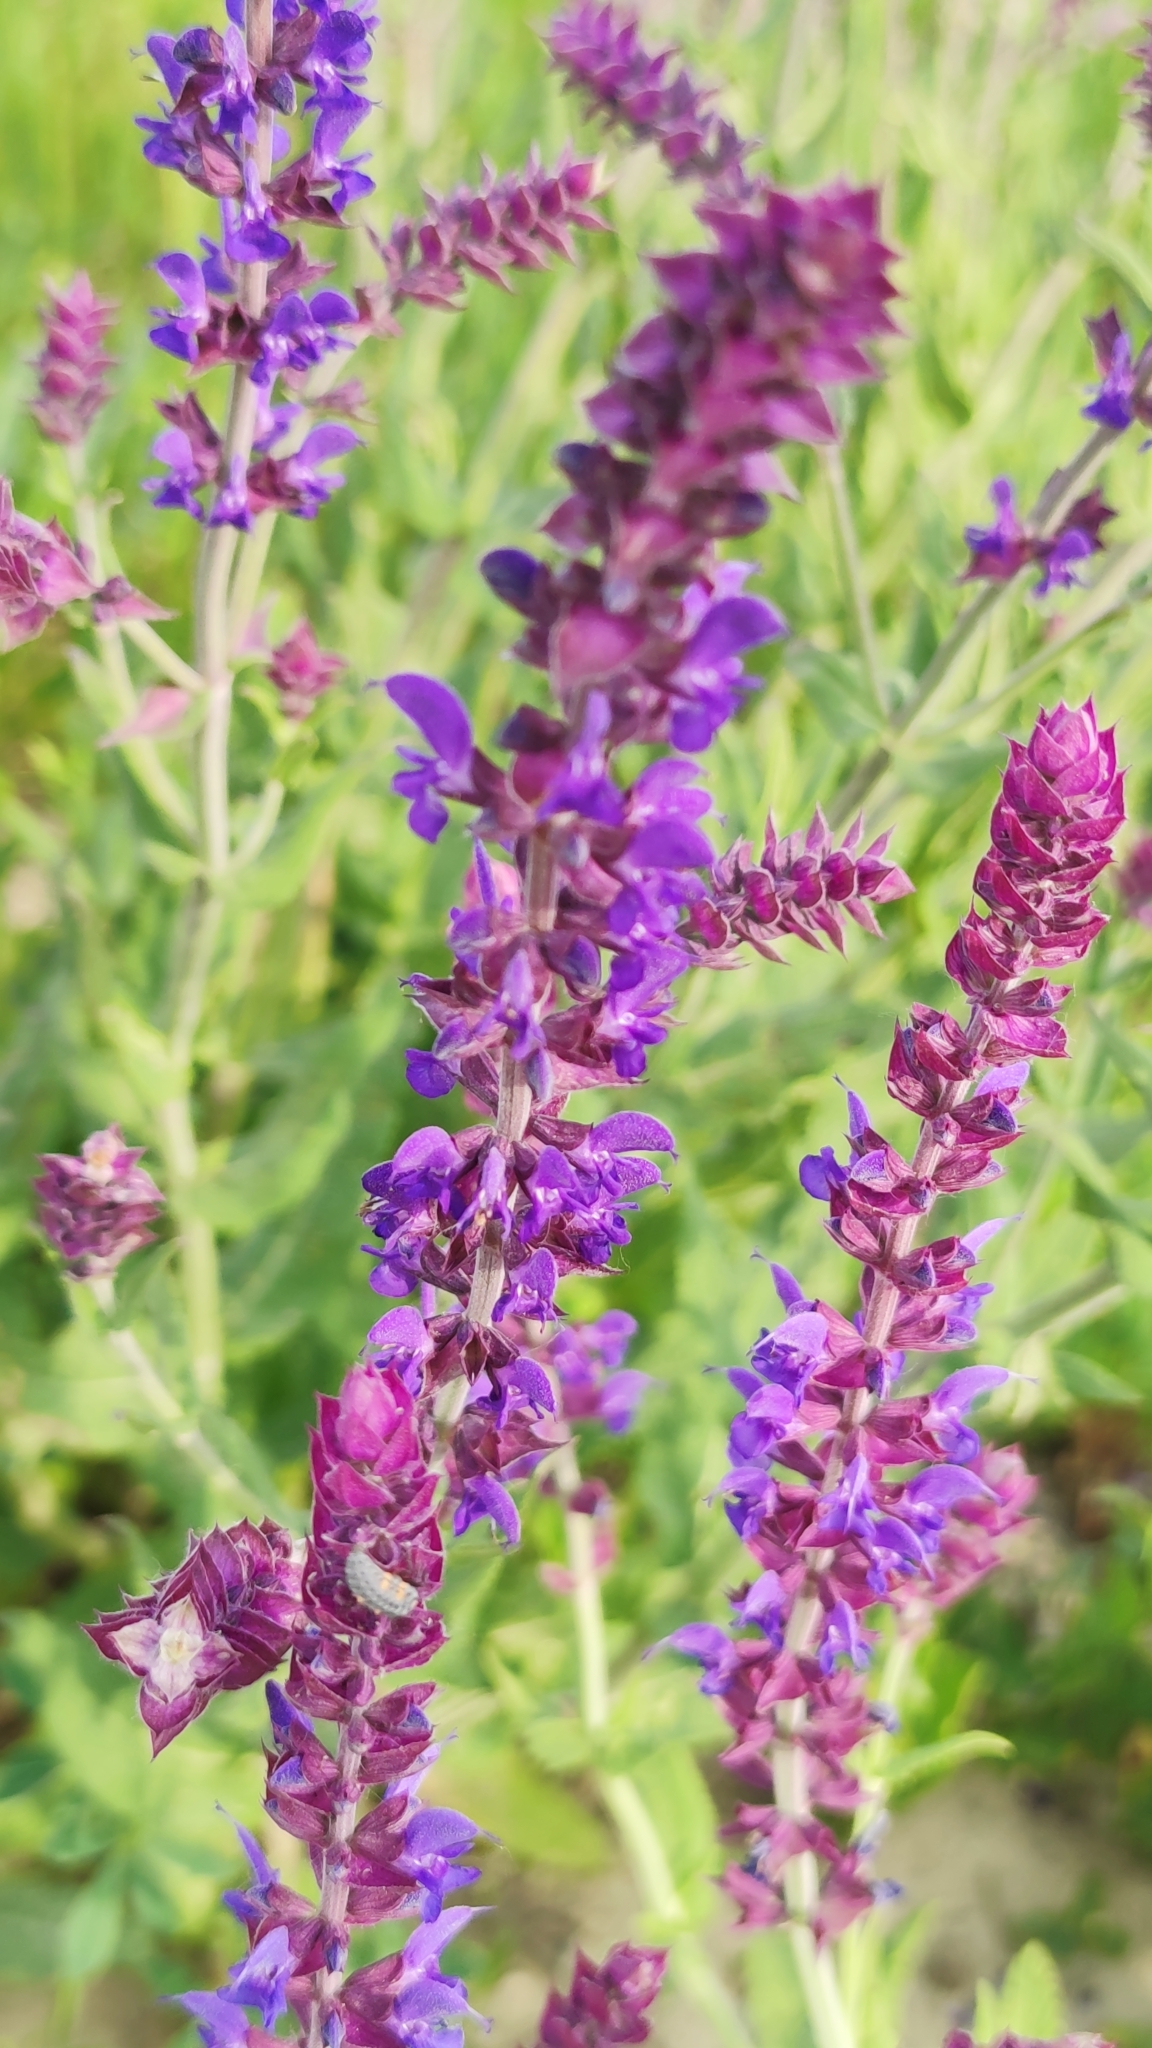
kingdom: Plantae
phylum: Tracheophyta
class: Magnoliopsida
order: Lamiales
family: Lamiaceae
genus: Salvia
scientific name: Salvia nemorosa
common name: Balkan clary
